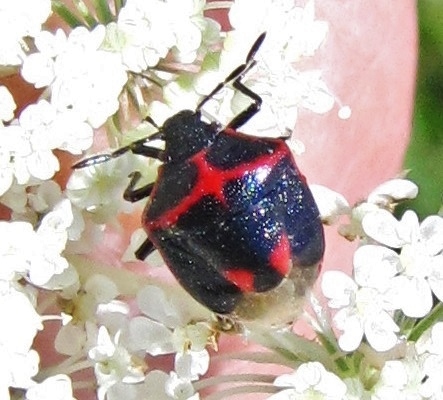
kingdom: Animalia
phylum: Arthropoda
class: Insecta
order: Hemiptera
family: Pentatomidae
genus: Cosmopepla
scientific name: Cosmopepla lintneriana
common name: Twice-stabbed stink bug
